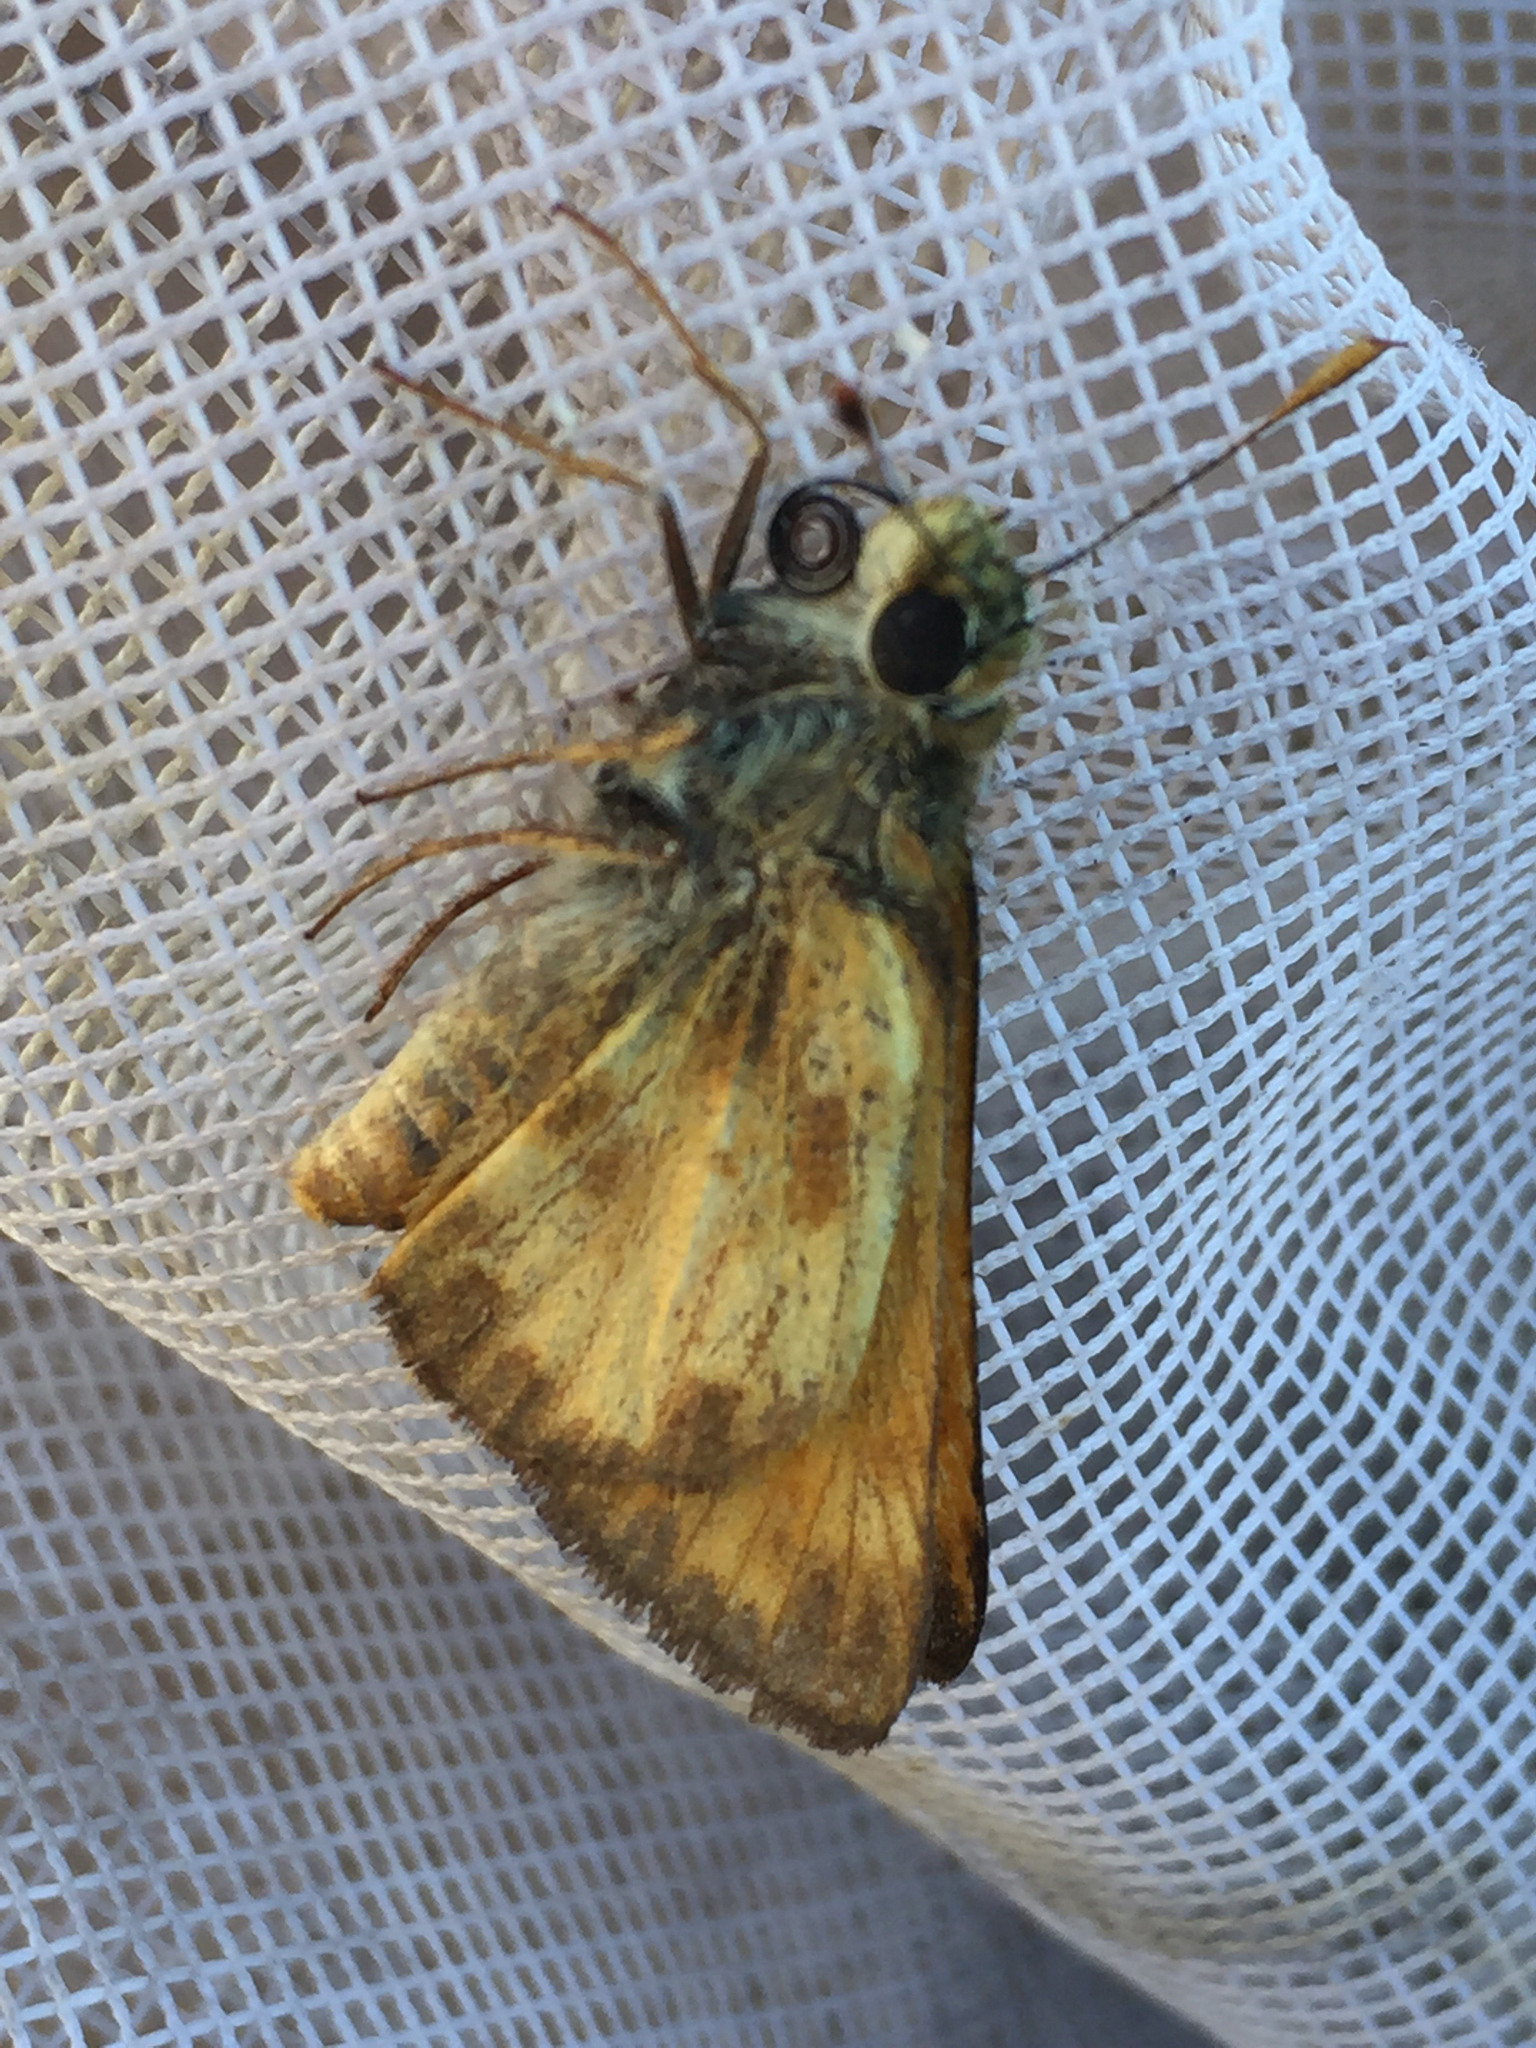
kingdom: Animalia
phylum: Arthropoda
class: Insecta
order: Lepidoptera
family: Hesperiidae
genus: Lon
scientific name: Lon taxiles
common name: Taxiles skipper
